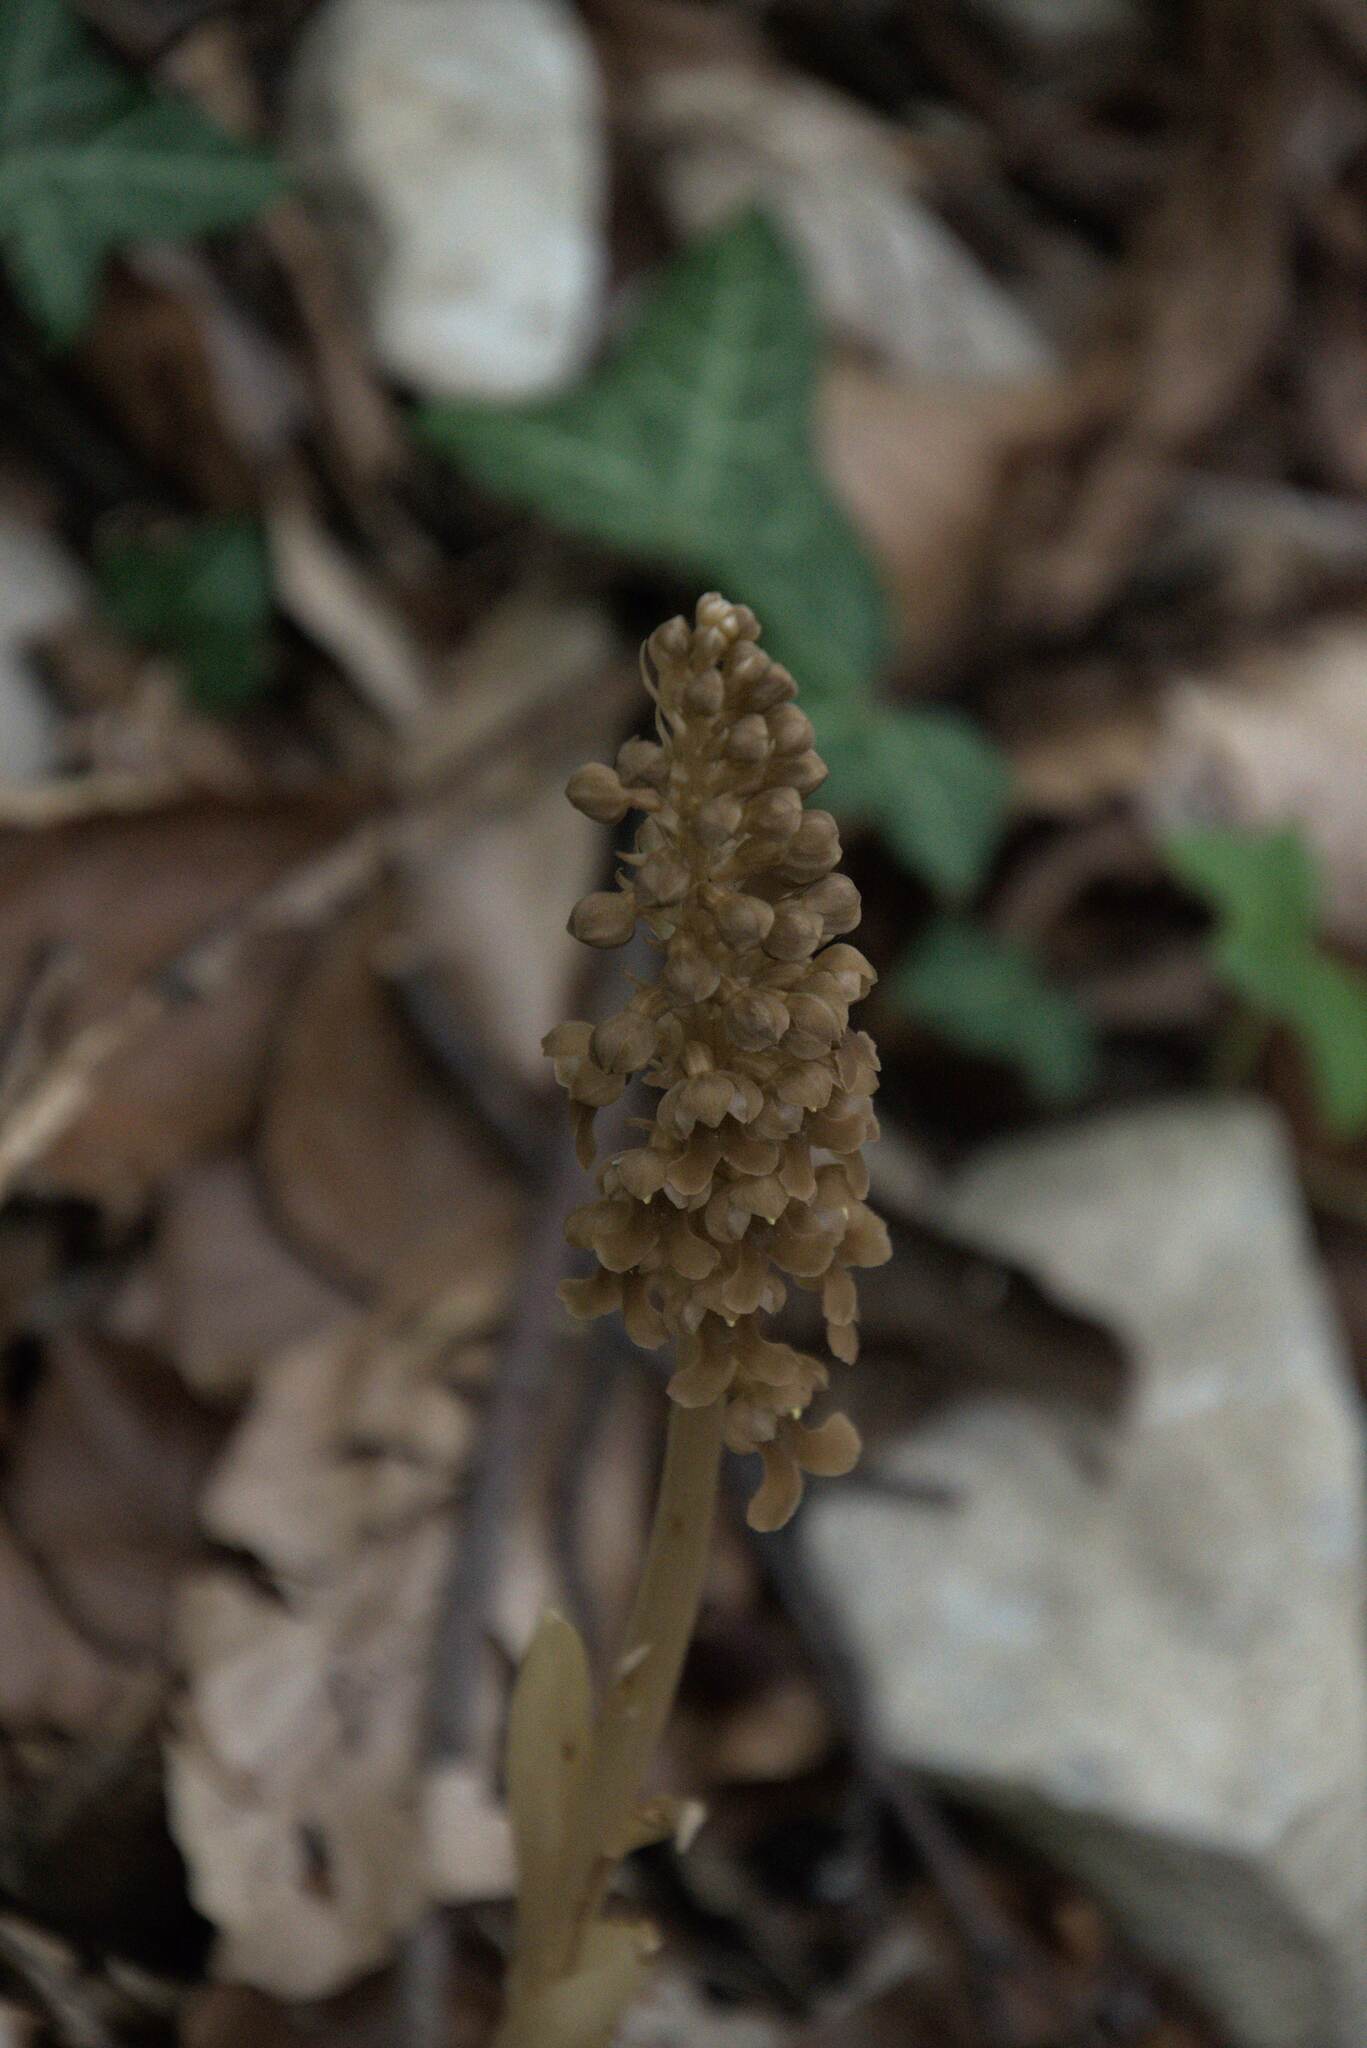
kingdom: Plantae
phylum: Tracheophyta
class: Liliopsida
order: Asparagales
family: Orchidaceae
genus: Neottia
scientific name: Neottia nidus-avis
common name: Bird's-nest orchid
